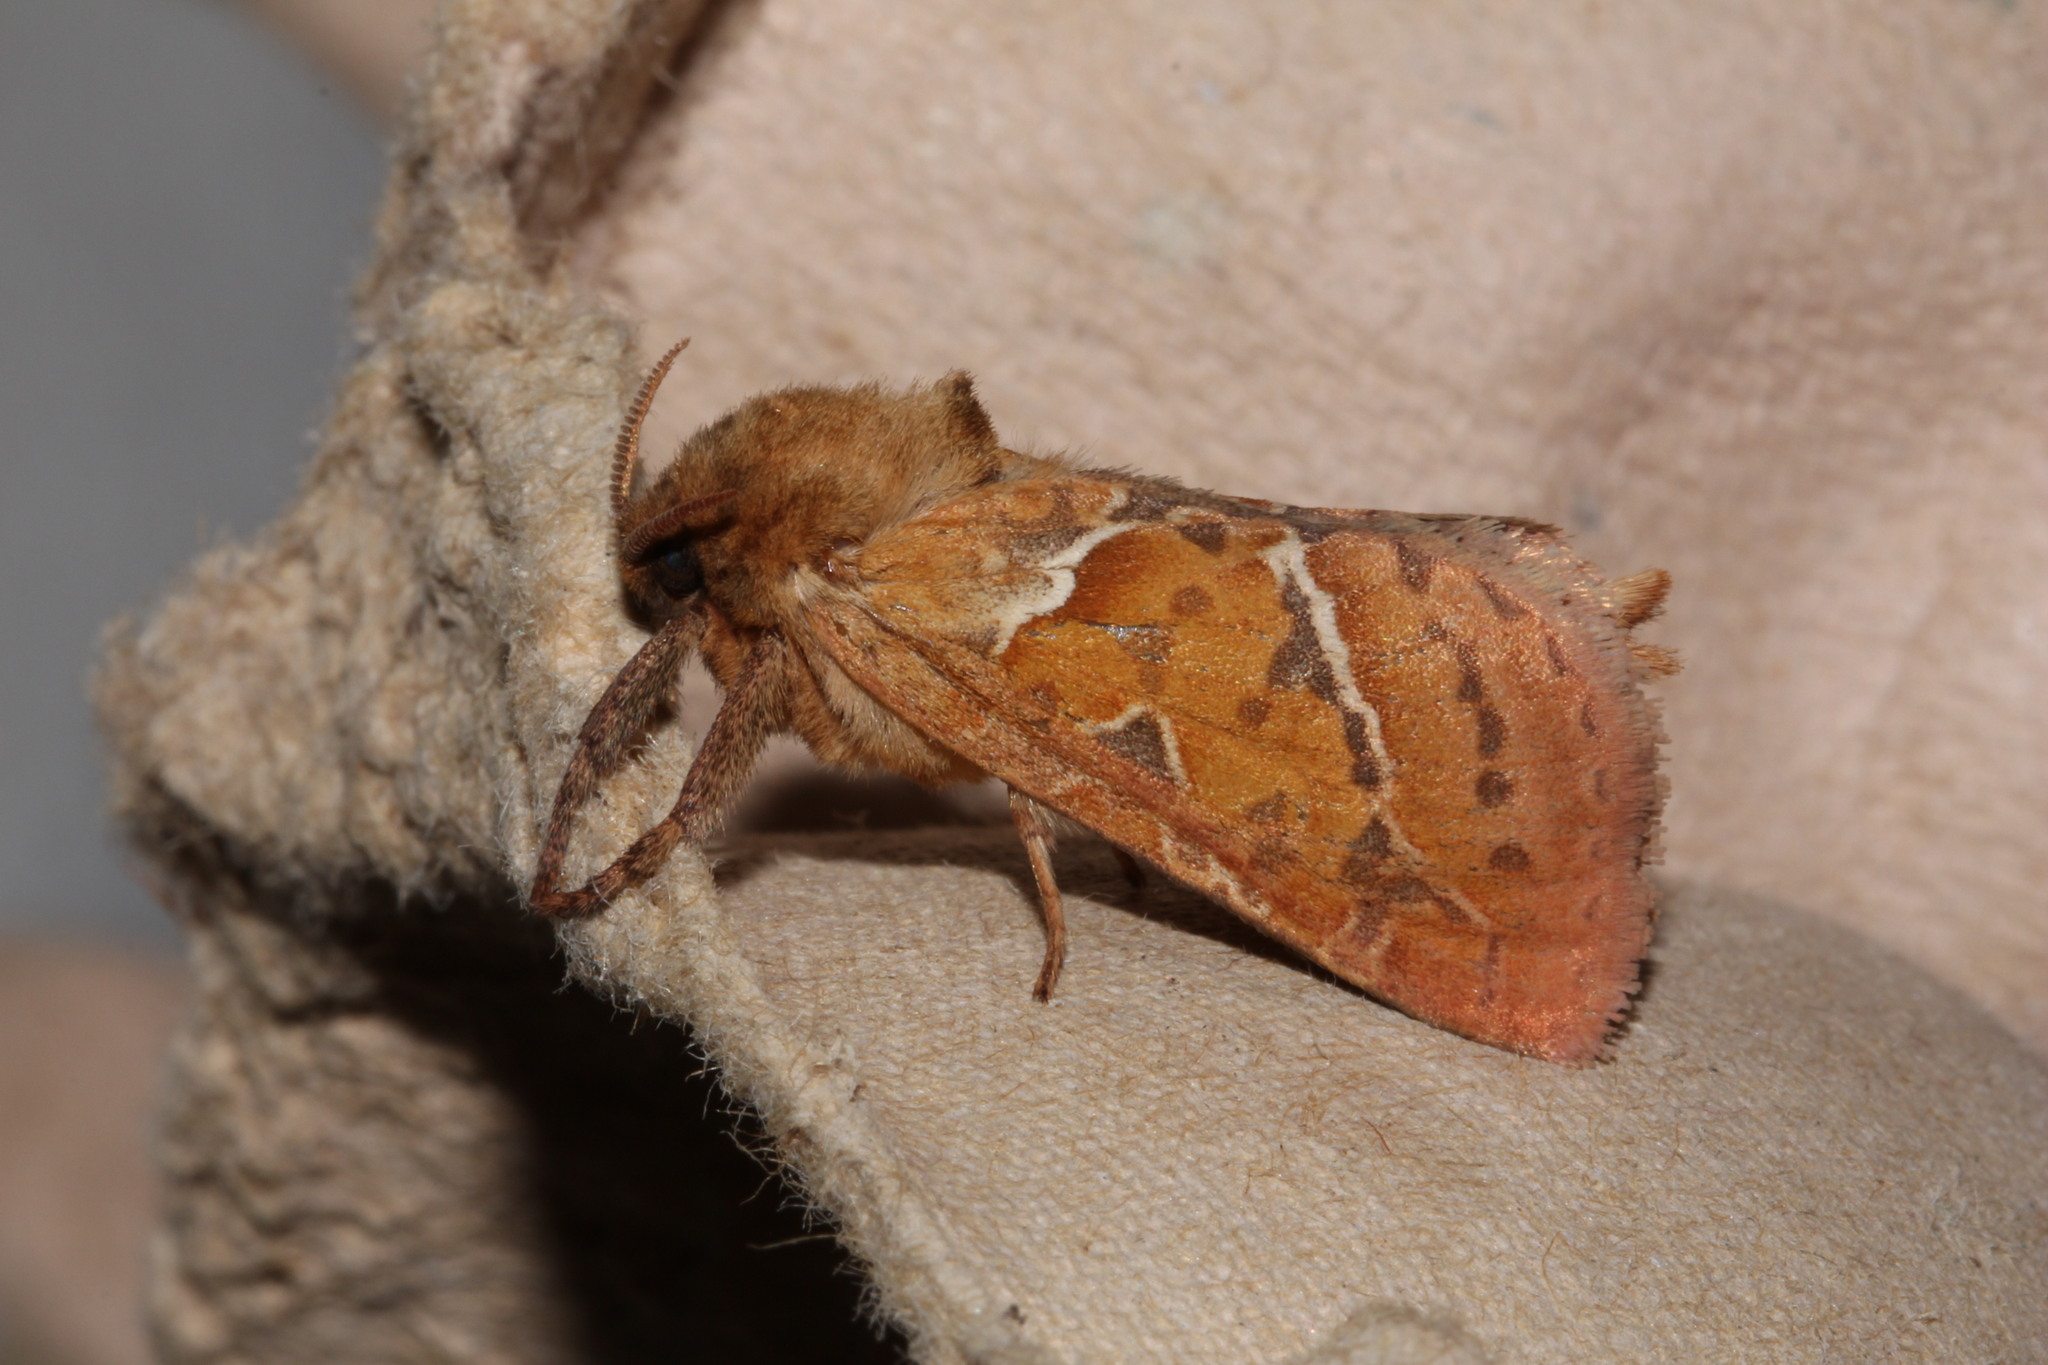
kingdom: Animalia
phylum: Arthropoda
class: Insecta
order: Lepidoptera
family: Hepialidae
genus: Triodia
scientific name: Triodia sylvina
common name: Orange swift
